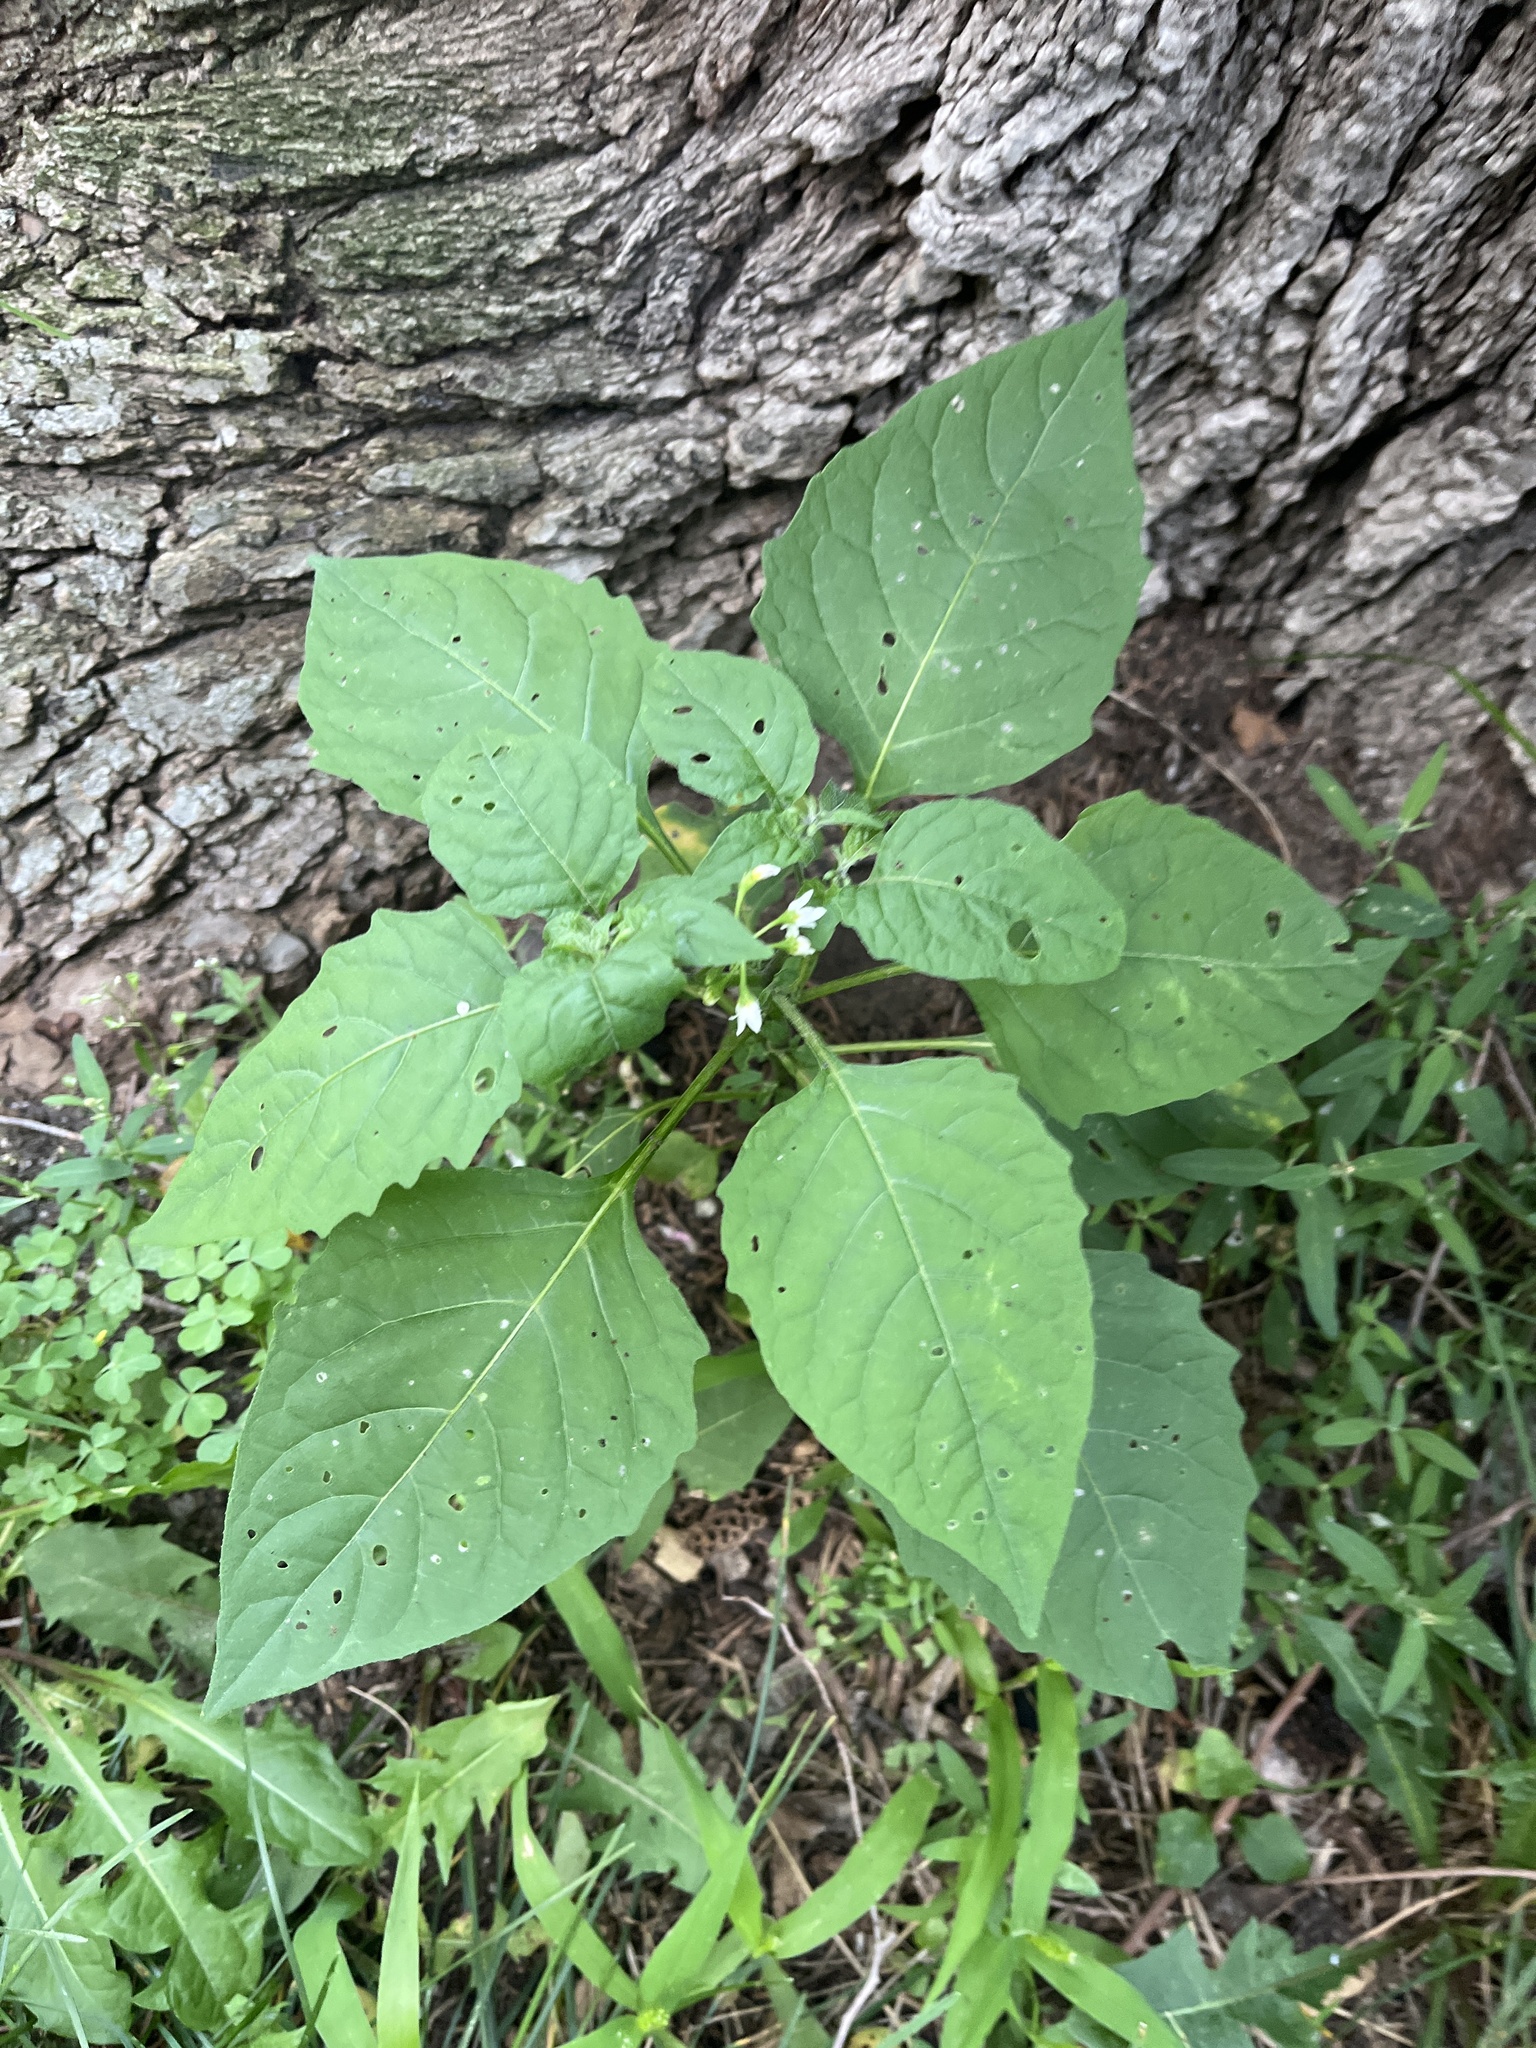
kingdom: Plantae
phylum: Tracheophyta
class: Magnoliopsida
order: Solanales
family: Solanaceae
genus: Solanum
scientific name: Solanum emulans
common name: Eastern black nightshade
